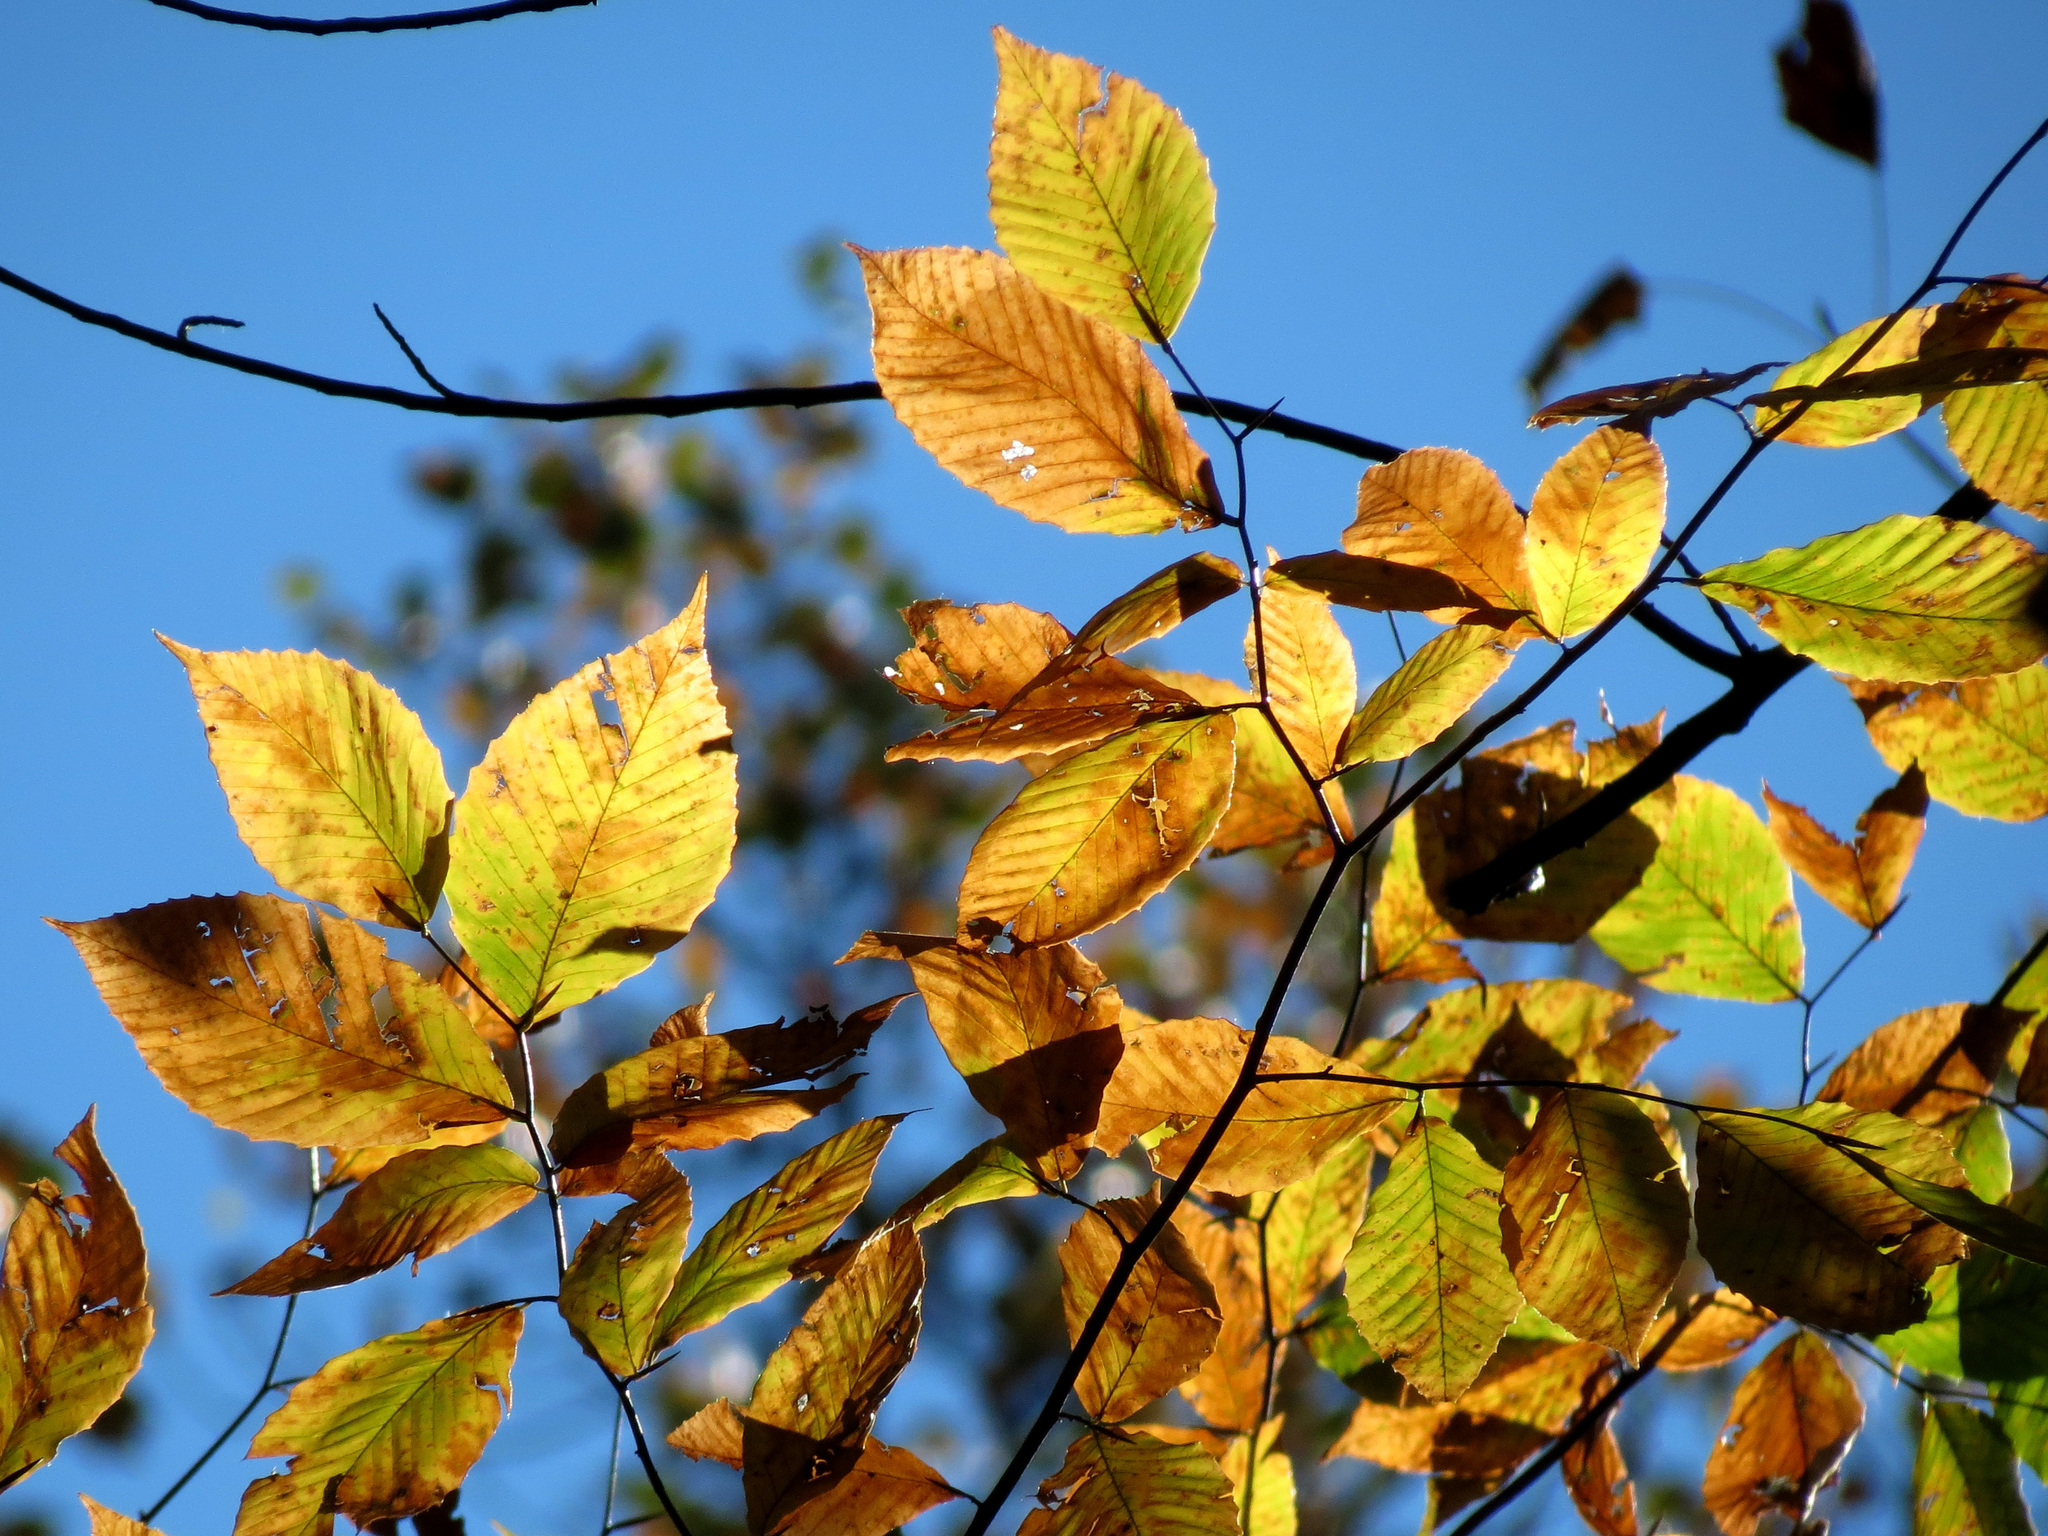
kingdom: Plantae
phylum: Tracheophyta
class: Magnoliopsida
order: Fagales
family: Fagaceae
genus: Fagus
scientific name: Fagus grandifolia
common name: American beech
